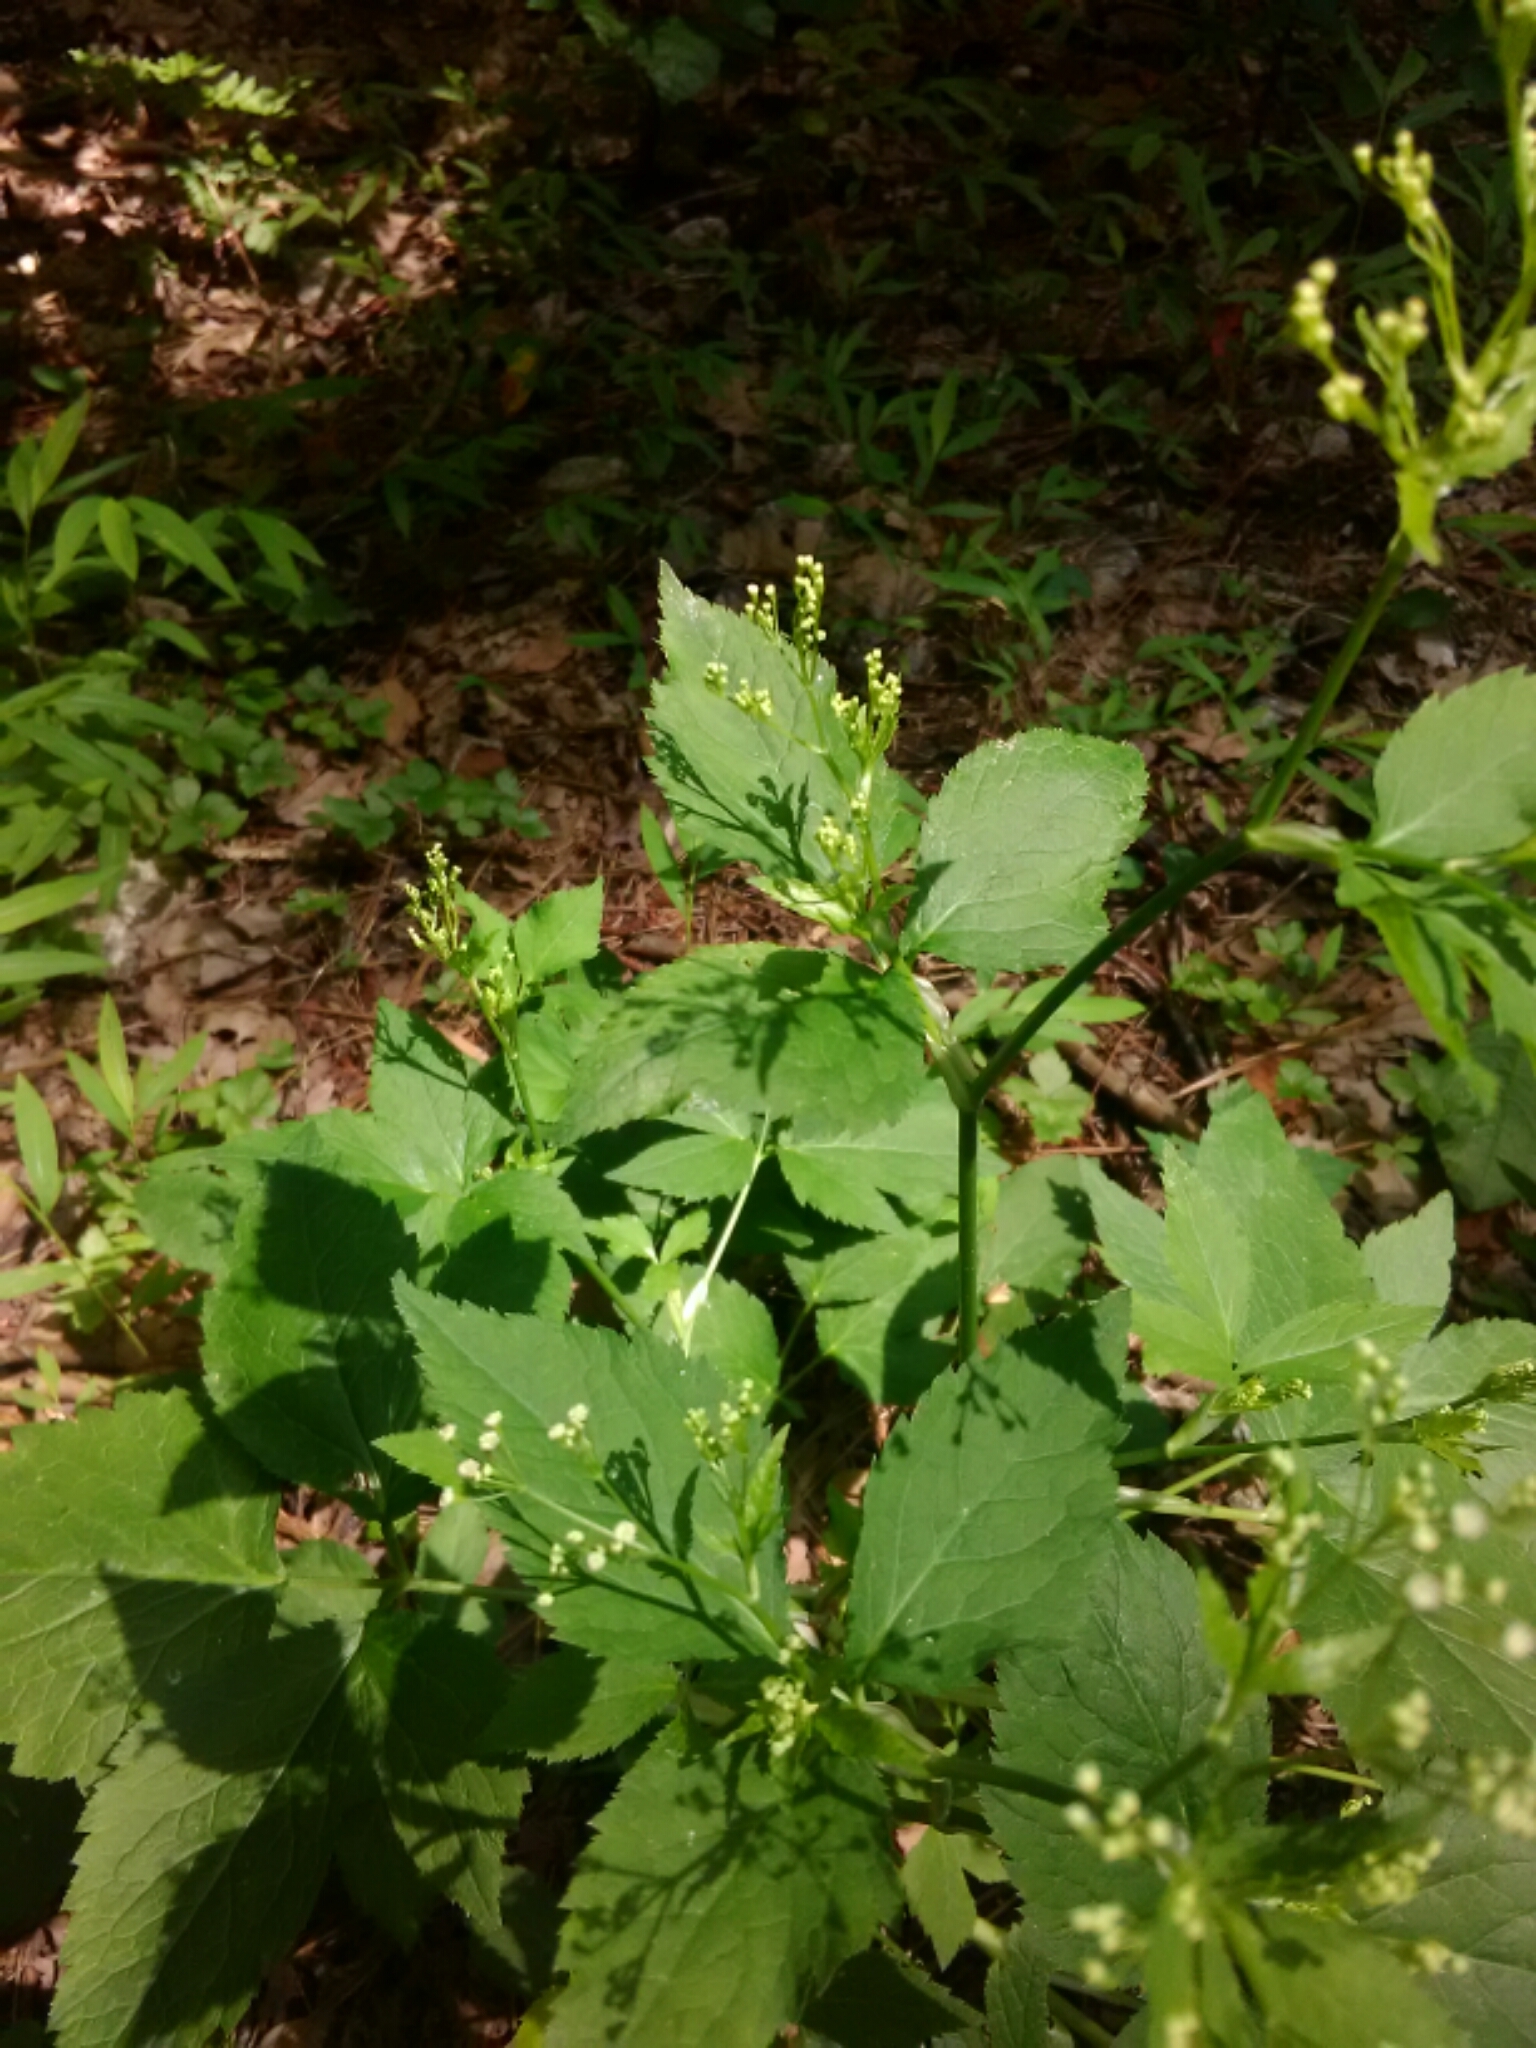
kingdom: Plantae
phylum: Tracheophyta
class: Magnoliopsida
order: Apiales
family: Apiaceae
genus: Cryptotaenia
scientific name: Cryptotaenia canadensis
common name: Honewort
